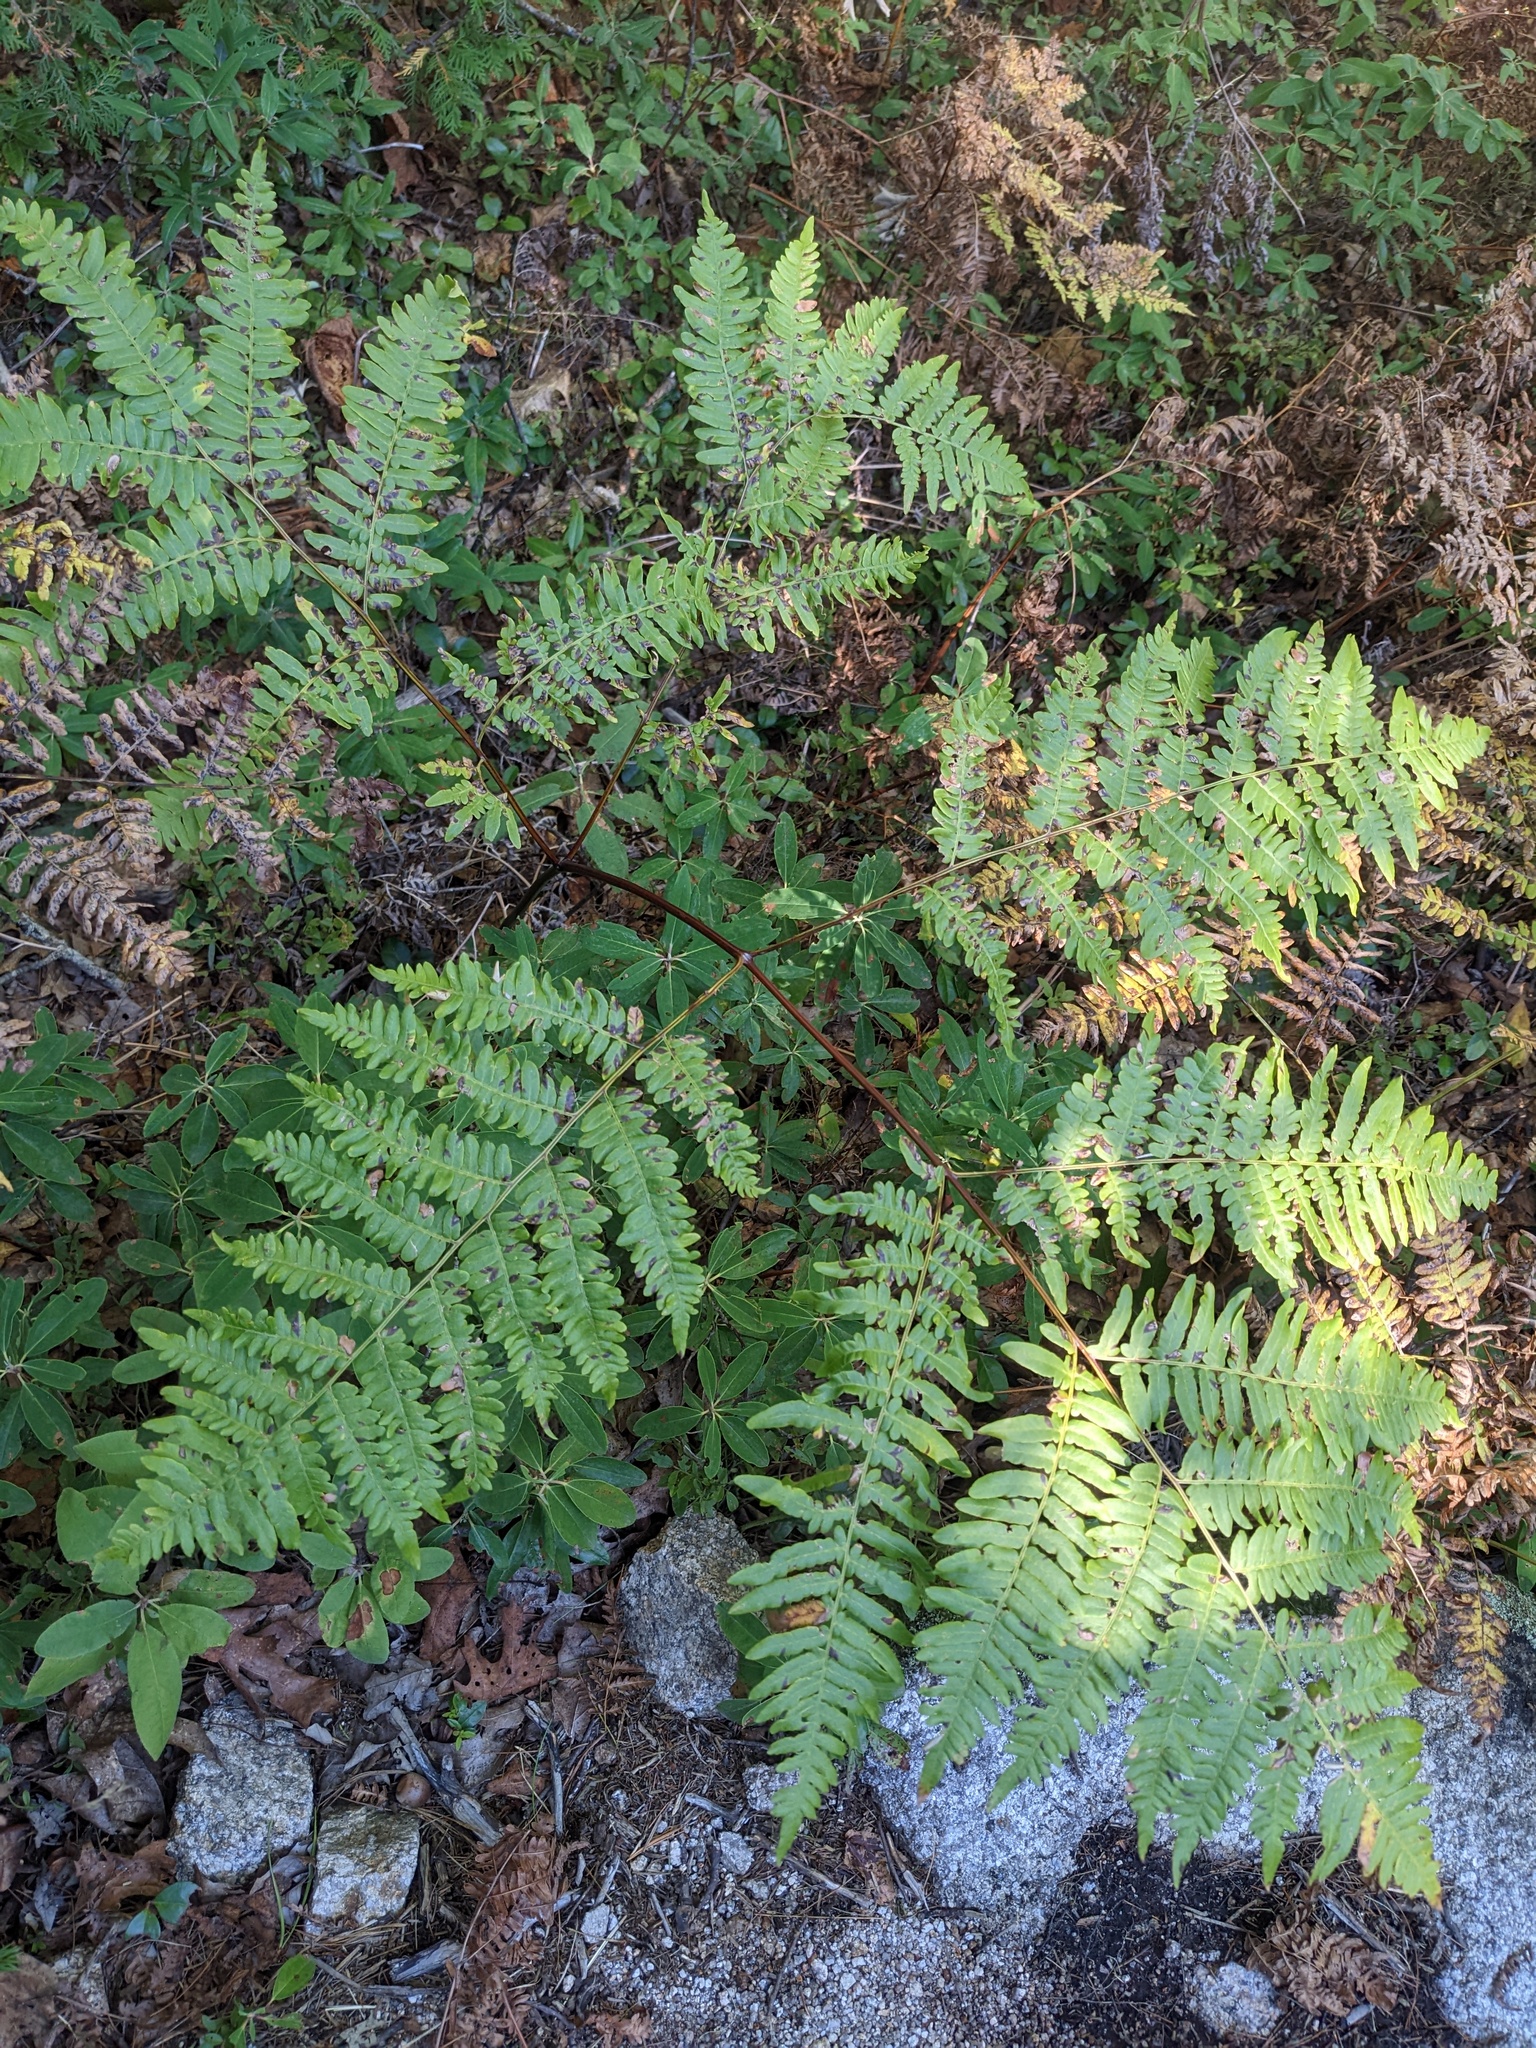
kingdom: Plantae
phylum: Tracheophyta
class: Polypodiopsida
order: Polypodiales
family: Dennstaedtiaceae
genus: Pteridium
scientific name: Pteridium aquilinum
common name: Bracken
